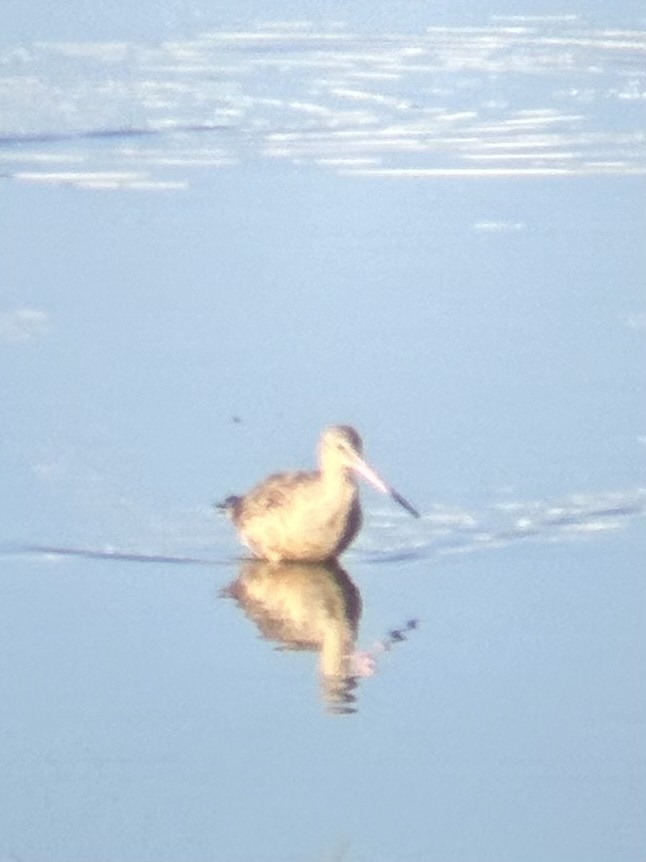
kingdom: Animalia
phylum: Chordata
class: Aves
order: Charadriiformes
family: Scolopacidae
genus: Limosa
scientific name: Limosa fedoa
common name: Marbled godwit
